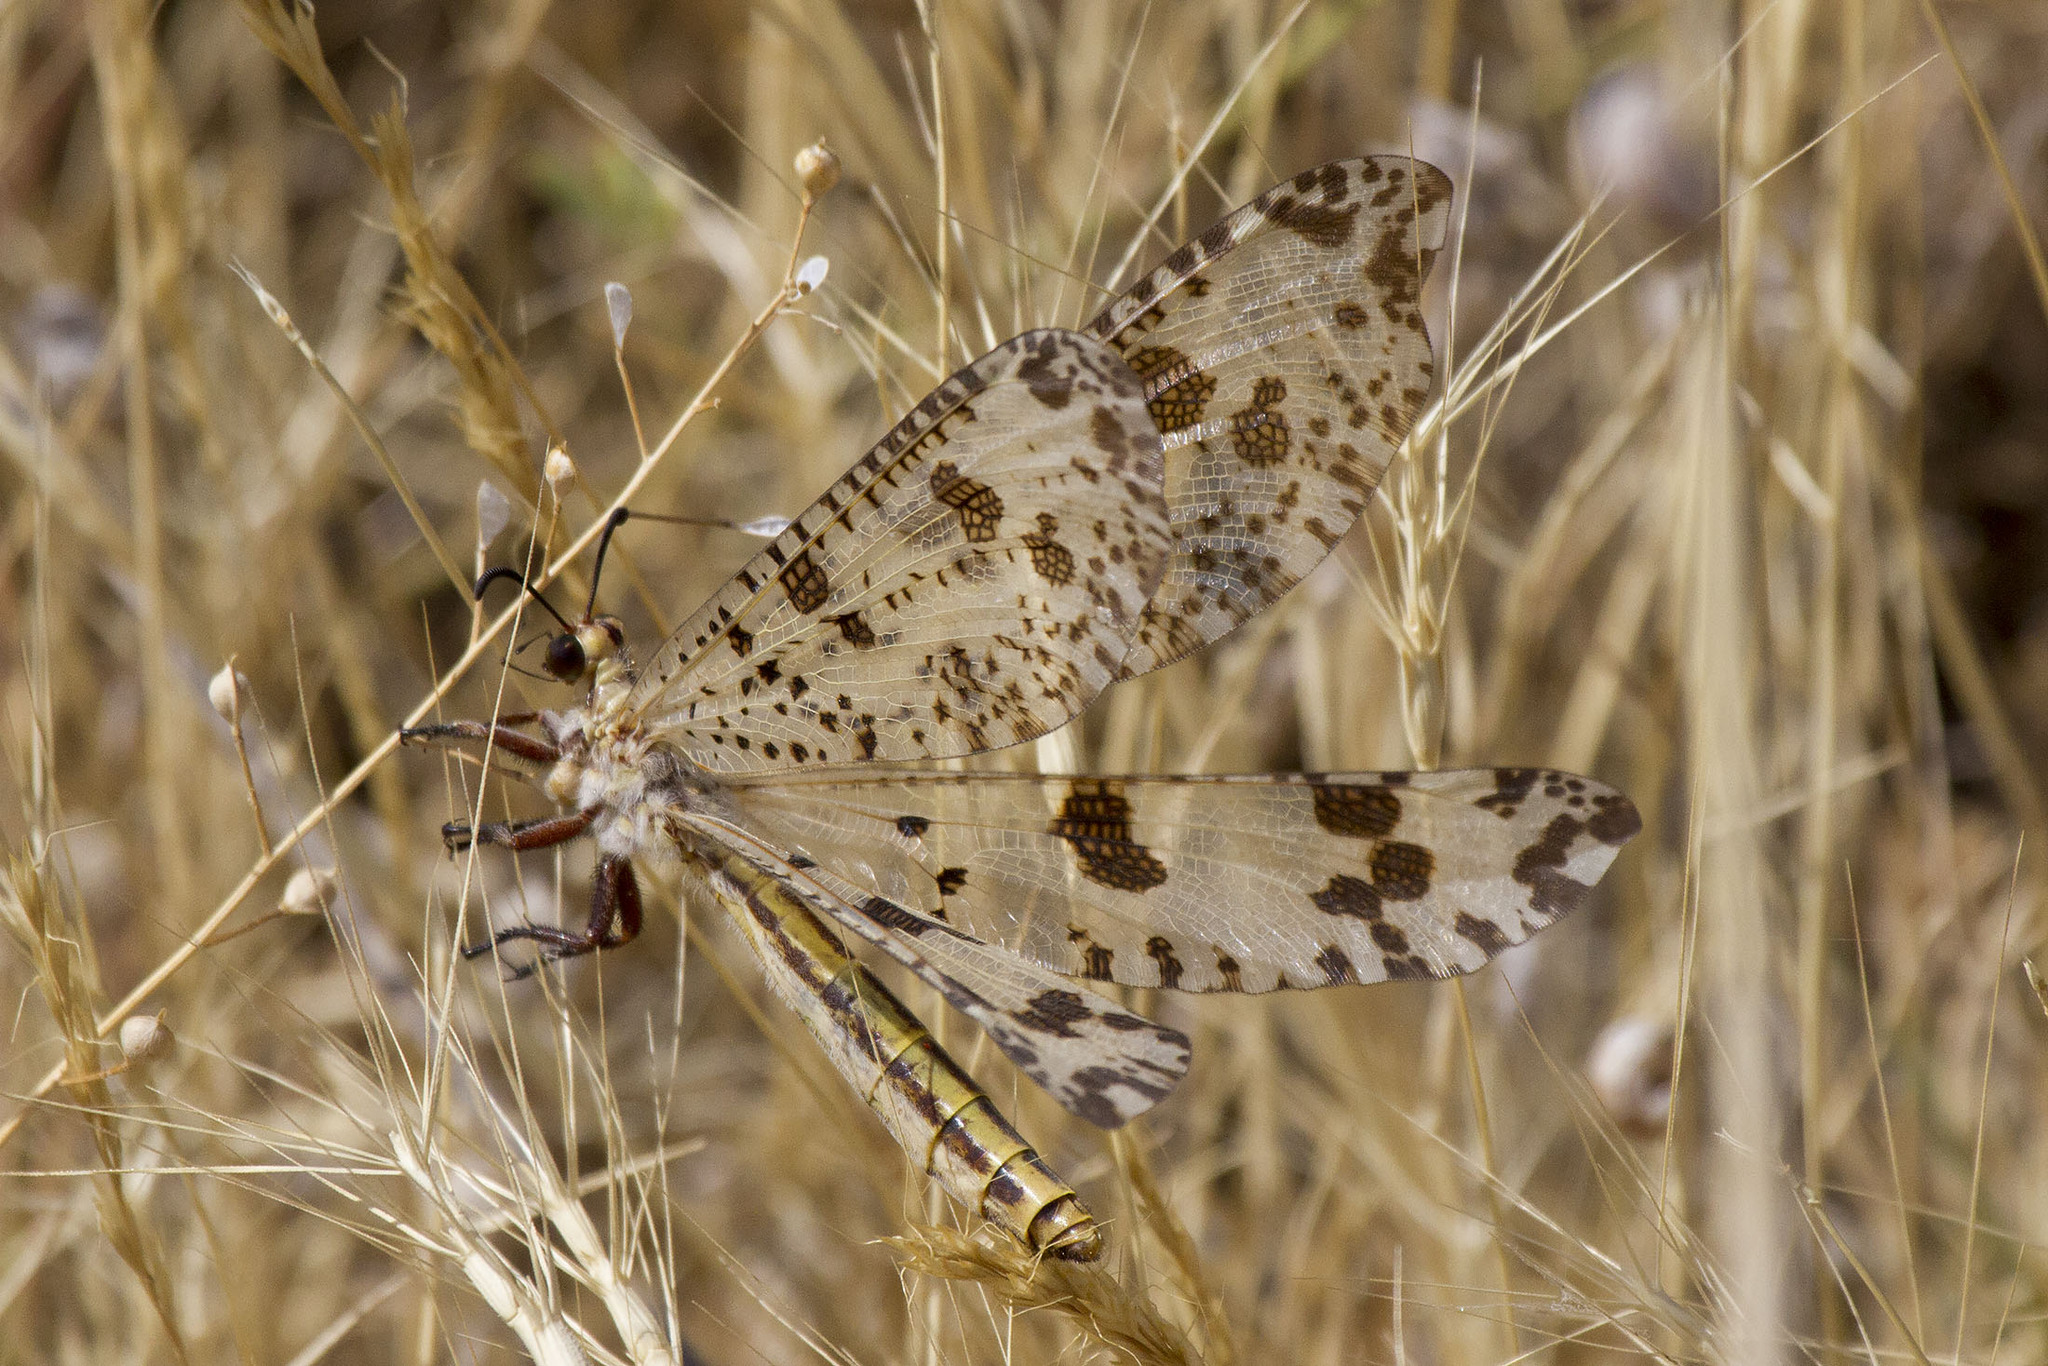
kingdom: Animalia
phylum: Arthropoda
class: Insecta
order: Neuroptera
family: Myrmeleontidae
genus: Palpares
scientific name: Palpares libelluloides
